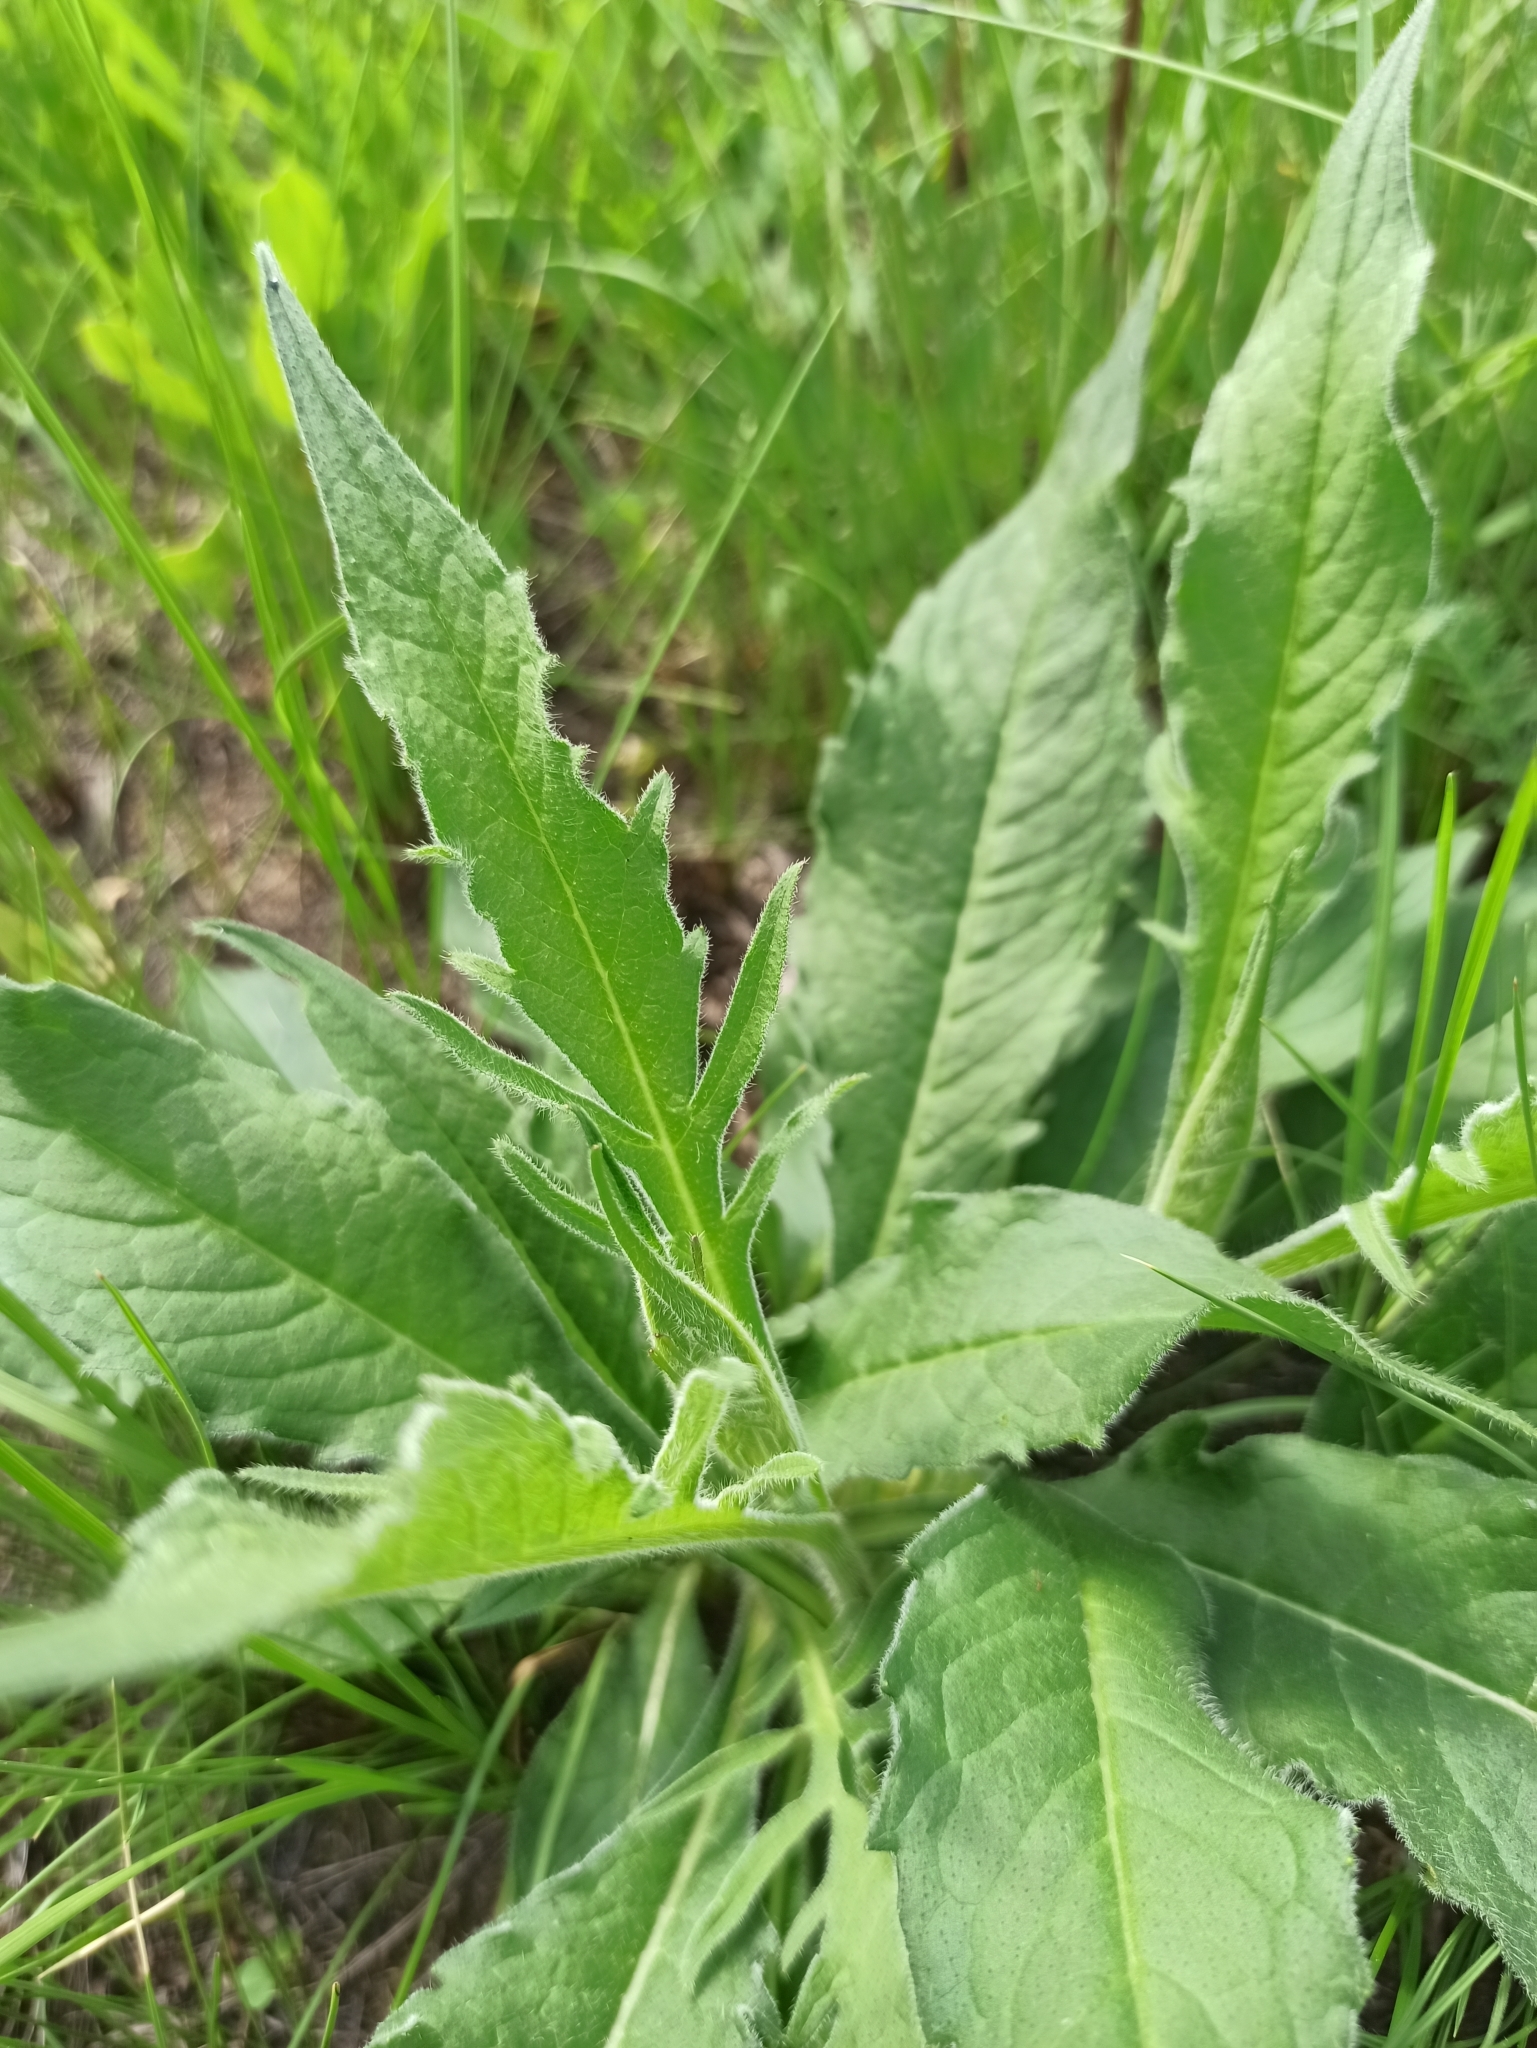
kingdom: Plantae
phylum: Tracheophyta
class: Magnoliopsida
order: Dipsacales
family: Caprifoliaceae
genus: Knautia
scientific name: Knautia arvensis
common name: Field scabiosa
